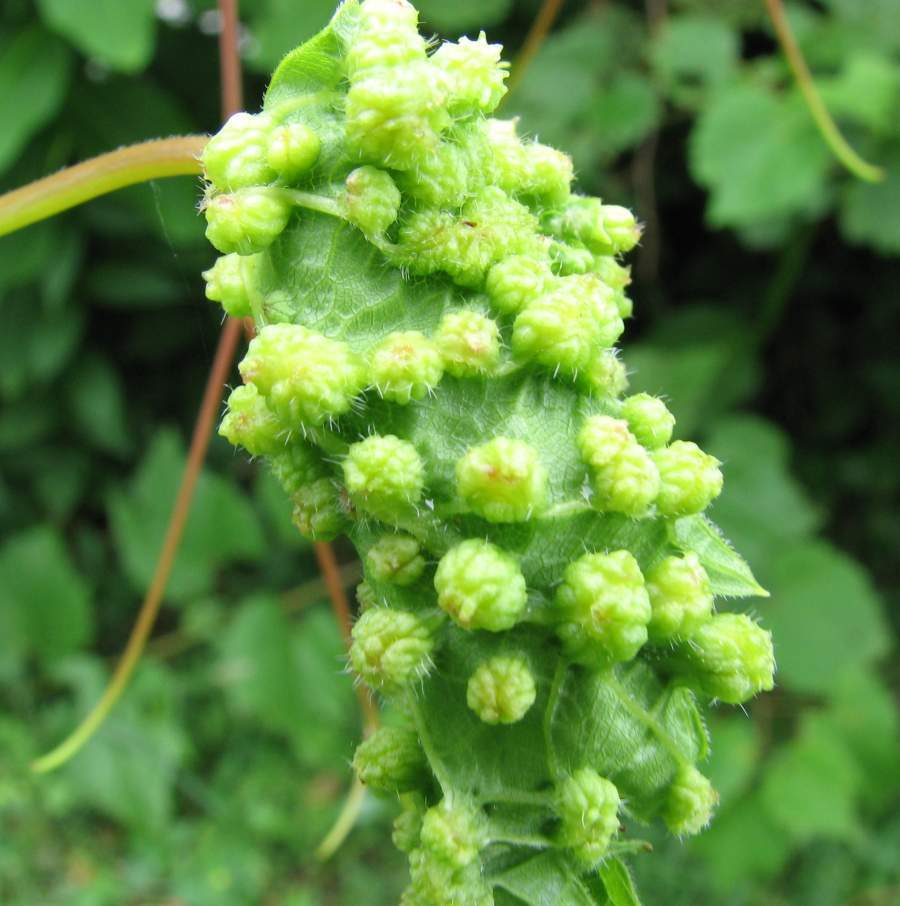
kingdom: Animalia
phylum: Arthropoda
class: Insecta
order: Hemiptera
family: Phylloxeridae
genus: Daktulosphaira
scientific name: Daktulosphaira vitifoliae
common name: Grape phylloxera
